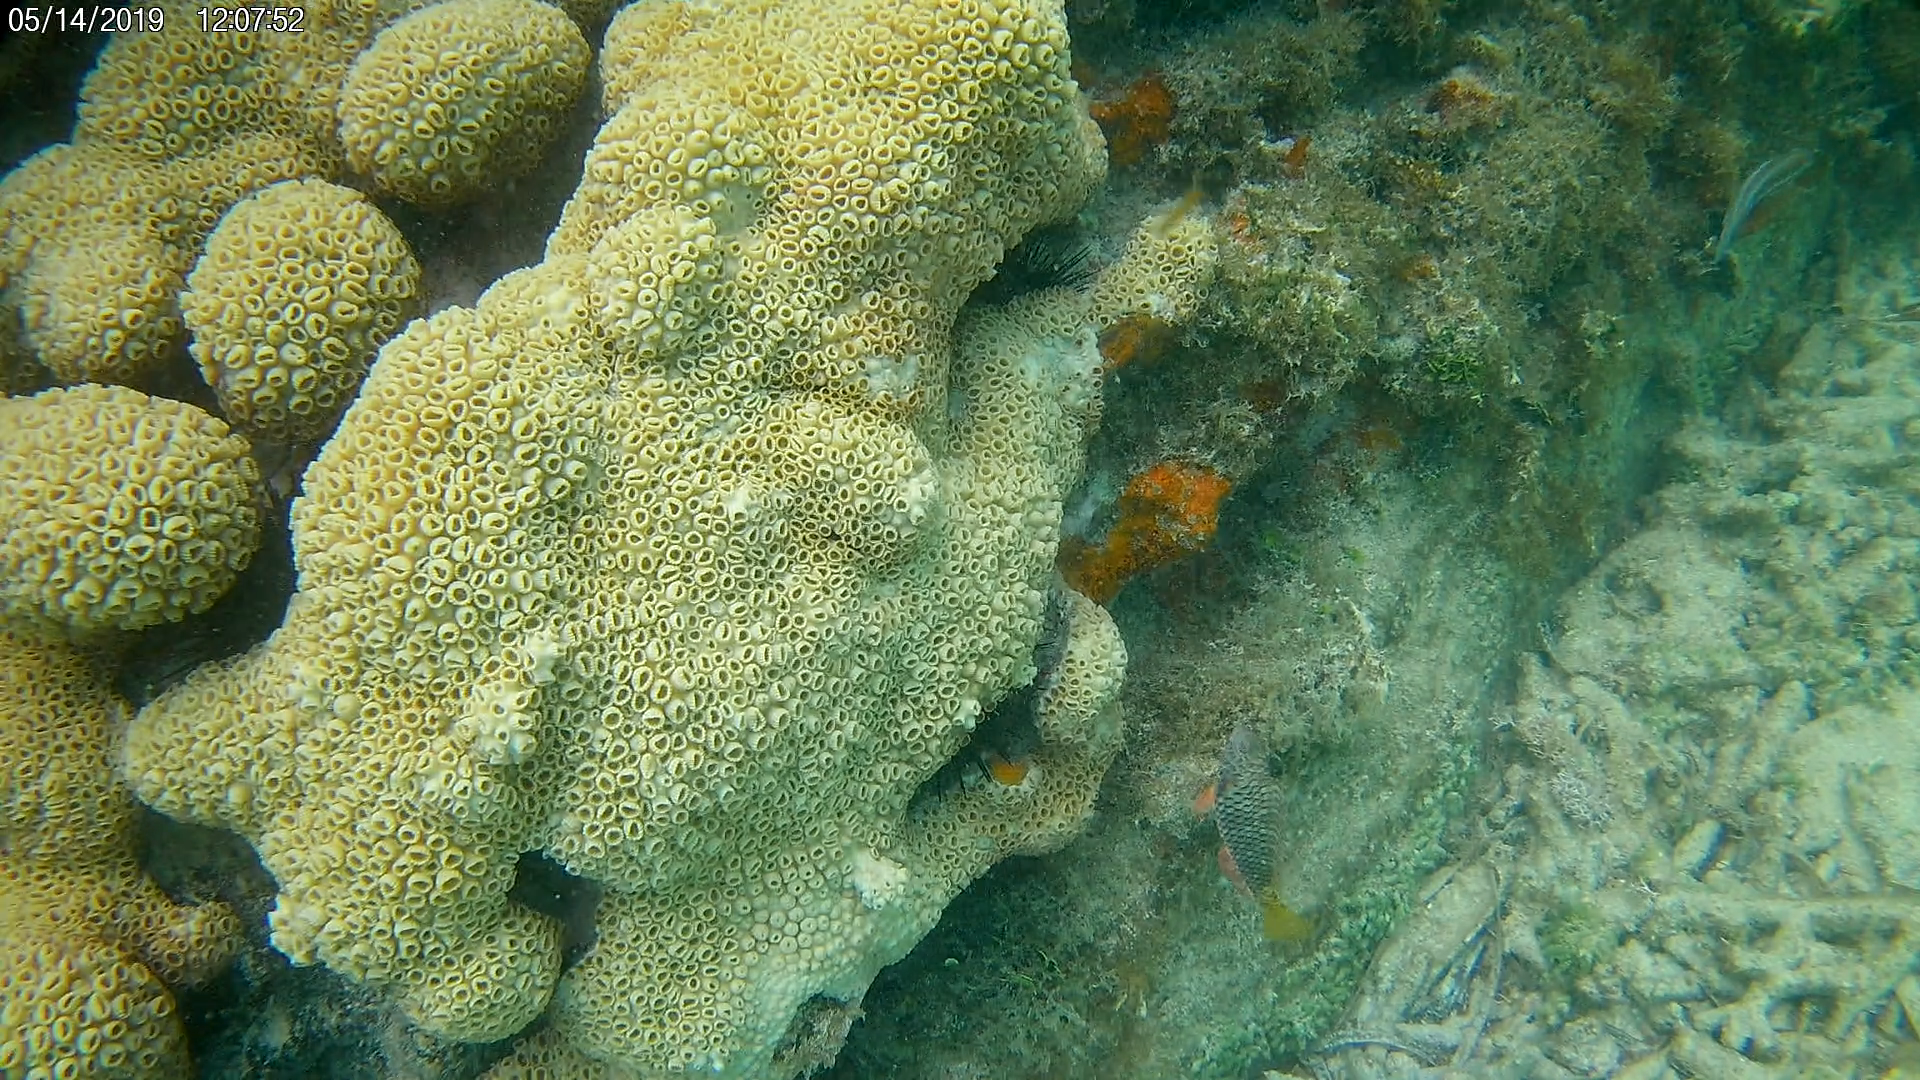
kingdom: Animalia
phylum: Chordata
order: Perciformes
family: Scaridae
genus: Sparisoma
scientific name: Sparisoma rubripinne
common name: Redfin parrotfish
